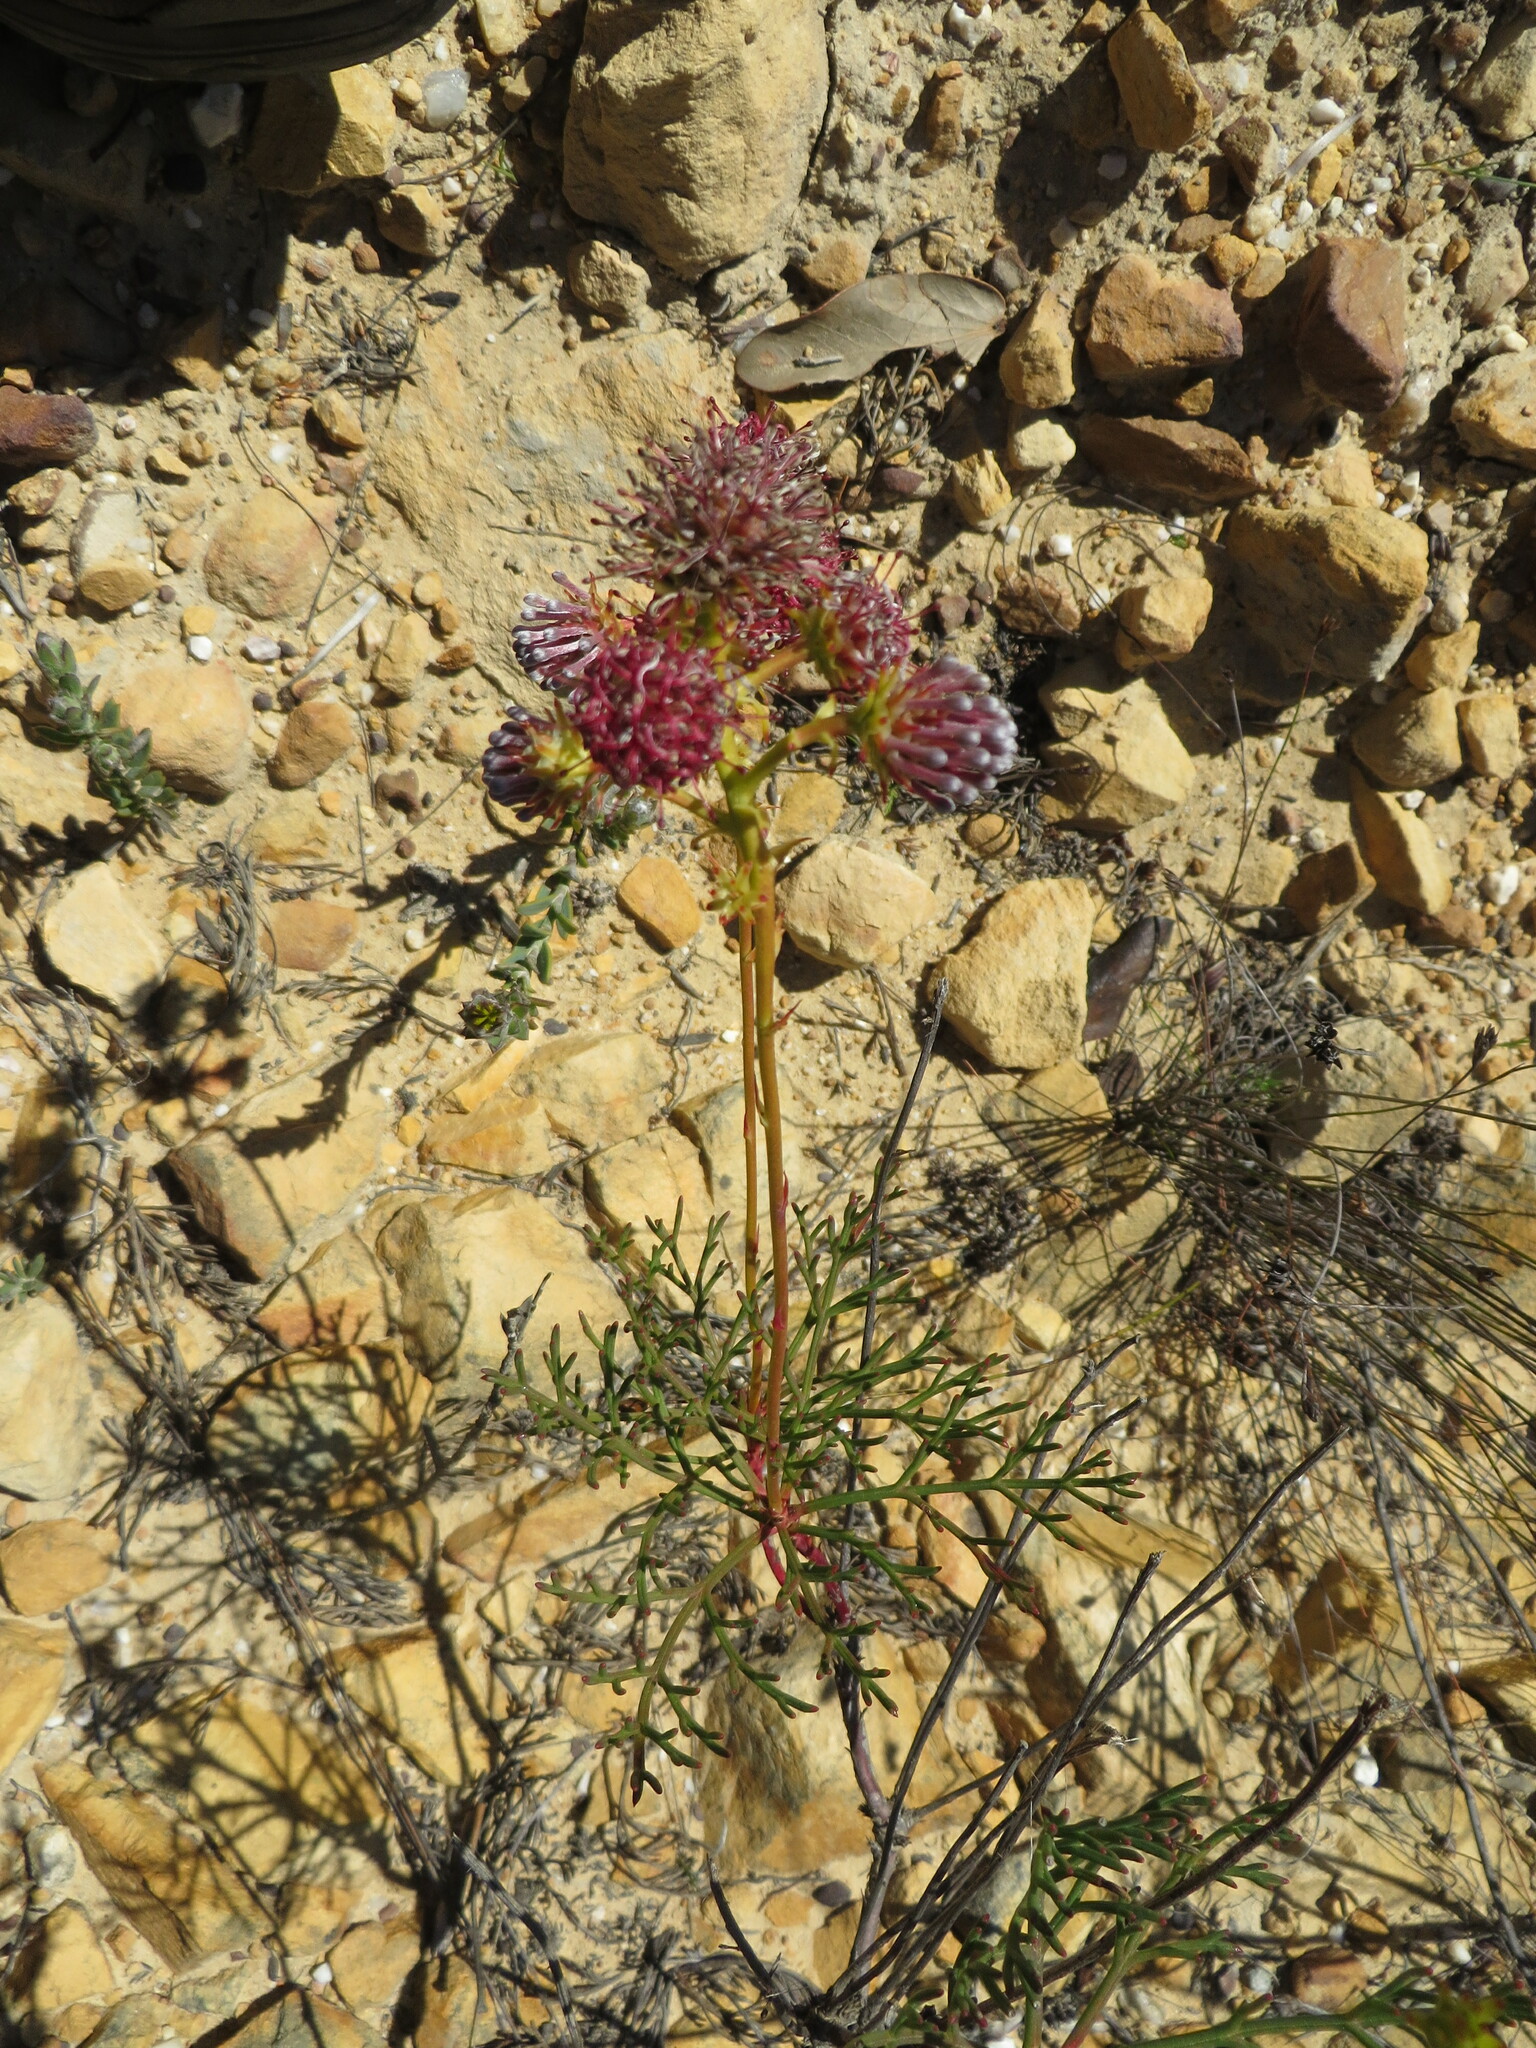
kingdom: Plantae
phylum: Tracheophyta
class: Magnoliopsida
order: Proteales
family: Proteaceae
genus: Serruria
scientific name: Serruria elongata
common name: Long-stalk spiderhead
